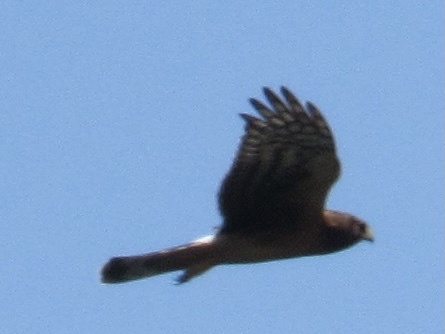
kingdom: Animalia
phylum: Chordata
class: Aves
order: Accipitriformes
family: Accipitridae
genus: Circus
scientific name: Circus cyaneus
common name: Hen harrier
